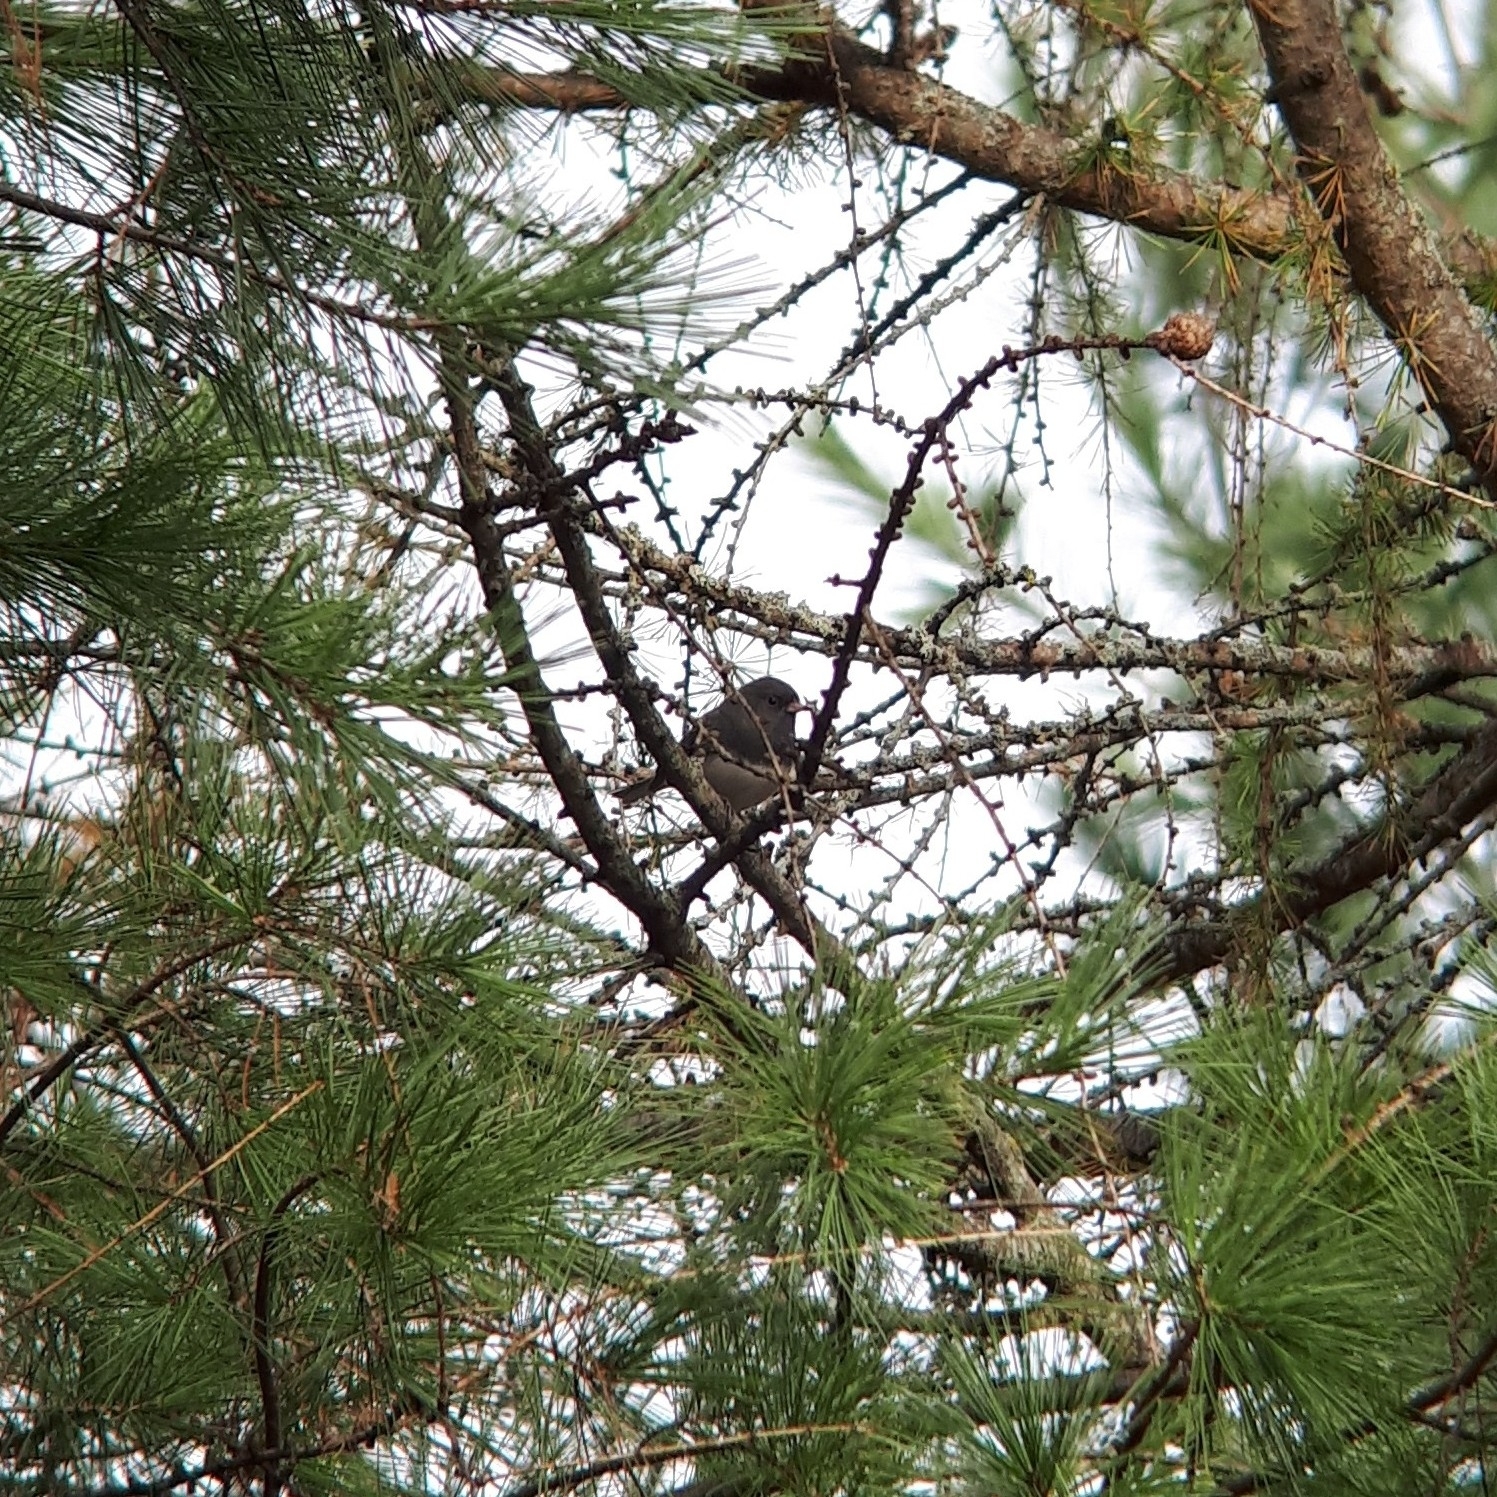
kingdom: Animalia
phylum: Chordata
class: Aves
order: Passeriformes
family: Passerellidae
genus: Junco
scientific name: Junco hyemalis
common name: Dark-eyed junco
